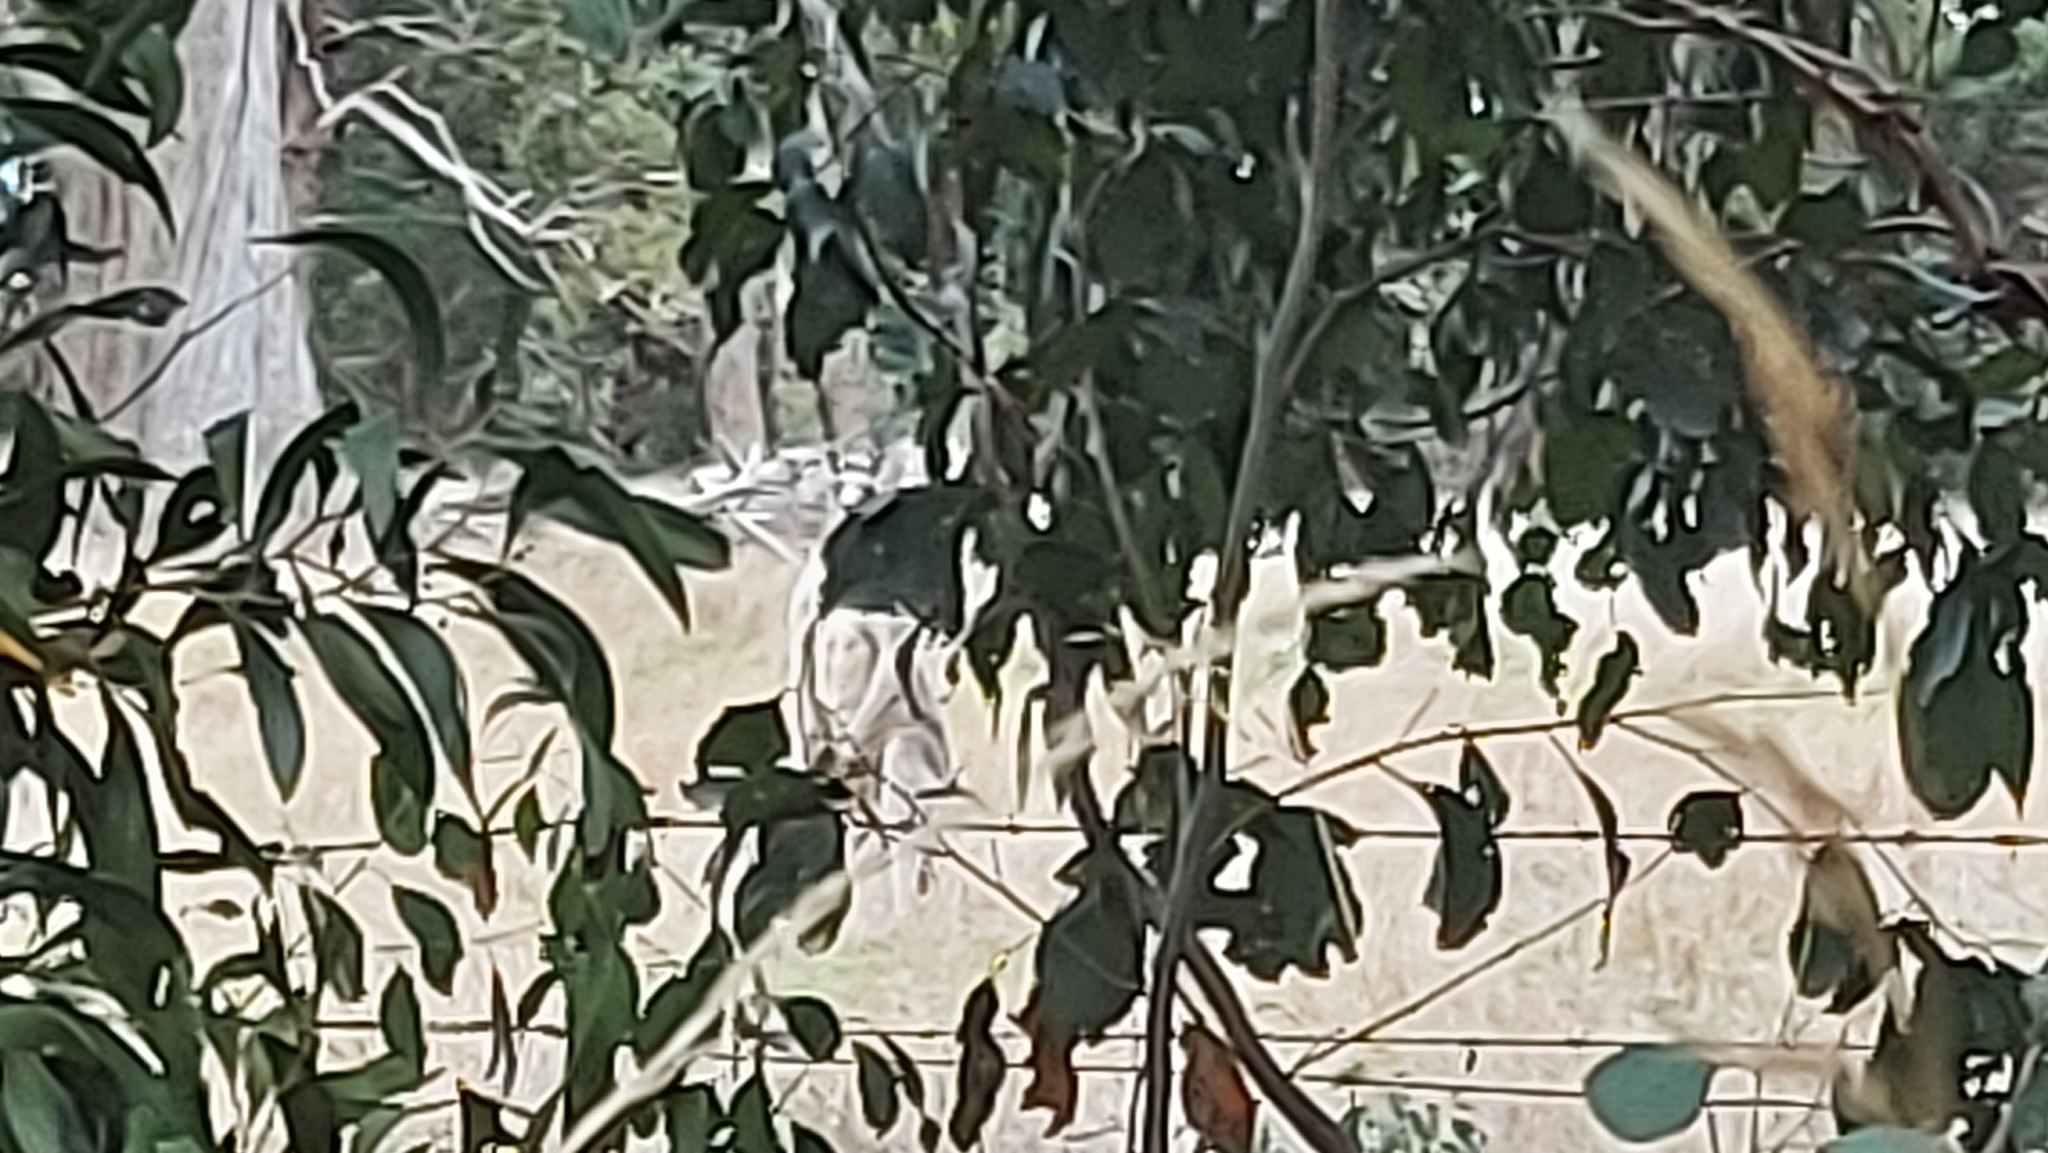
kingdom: Animalia
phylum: Chordata
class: Mammalia
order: Diprotodontia
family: Macropodidae
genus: Macropus
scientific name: Macropus giganteus
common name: Eastern grey kangaroo
